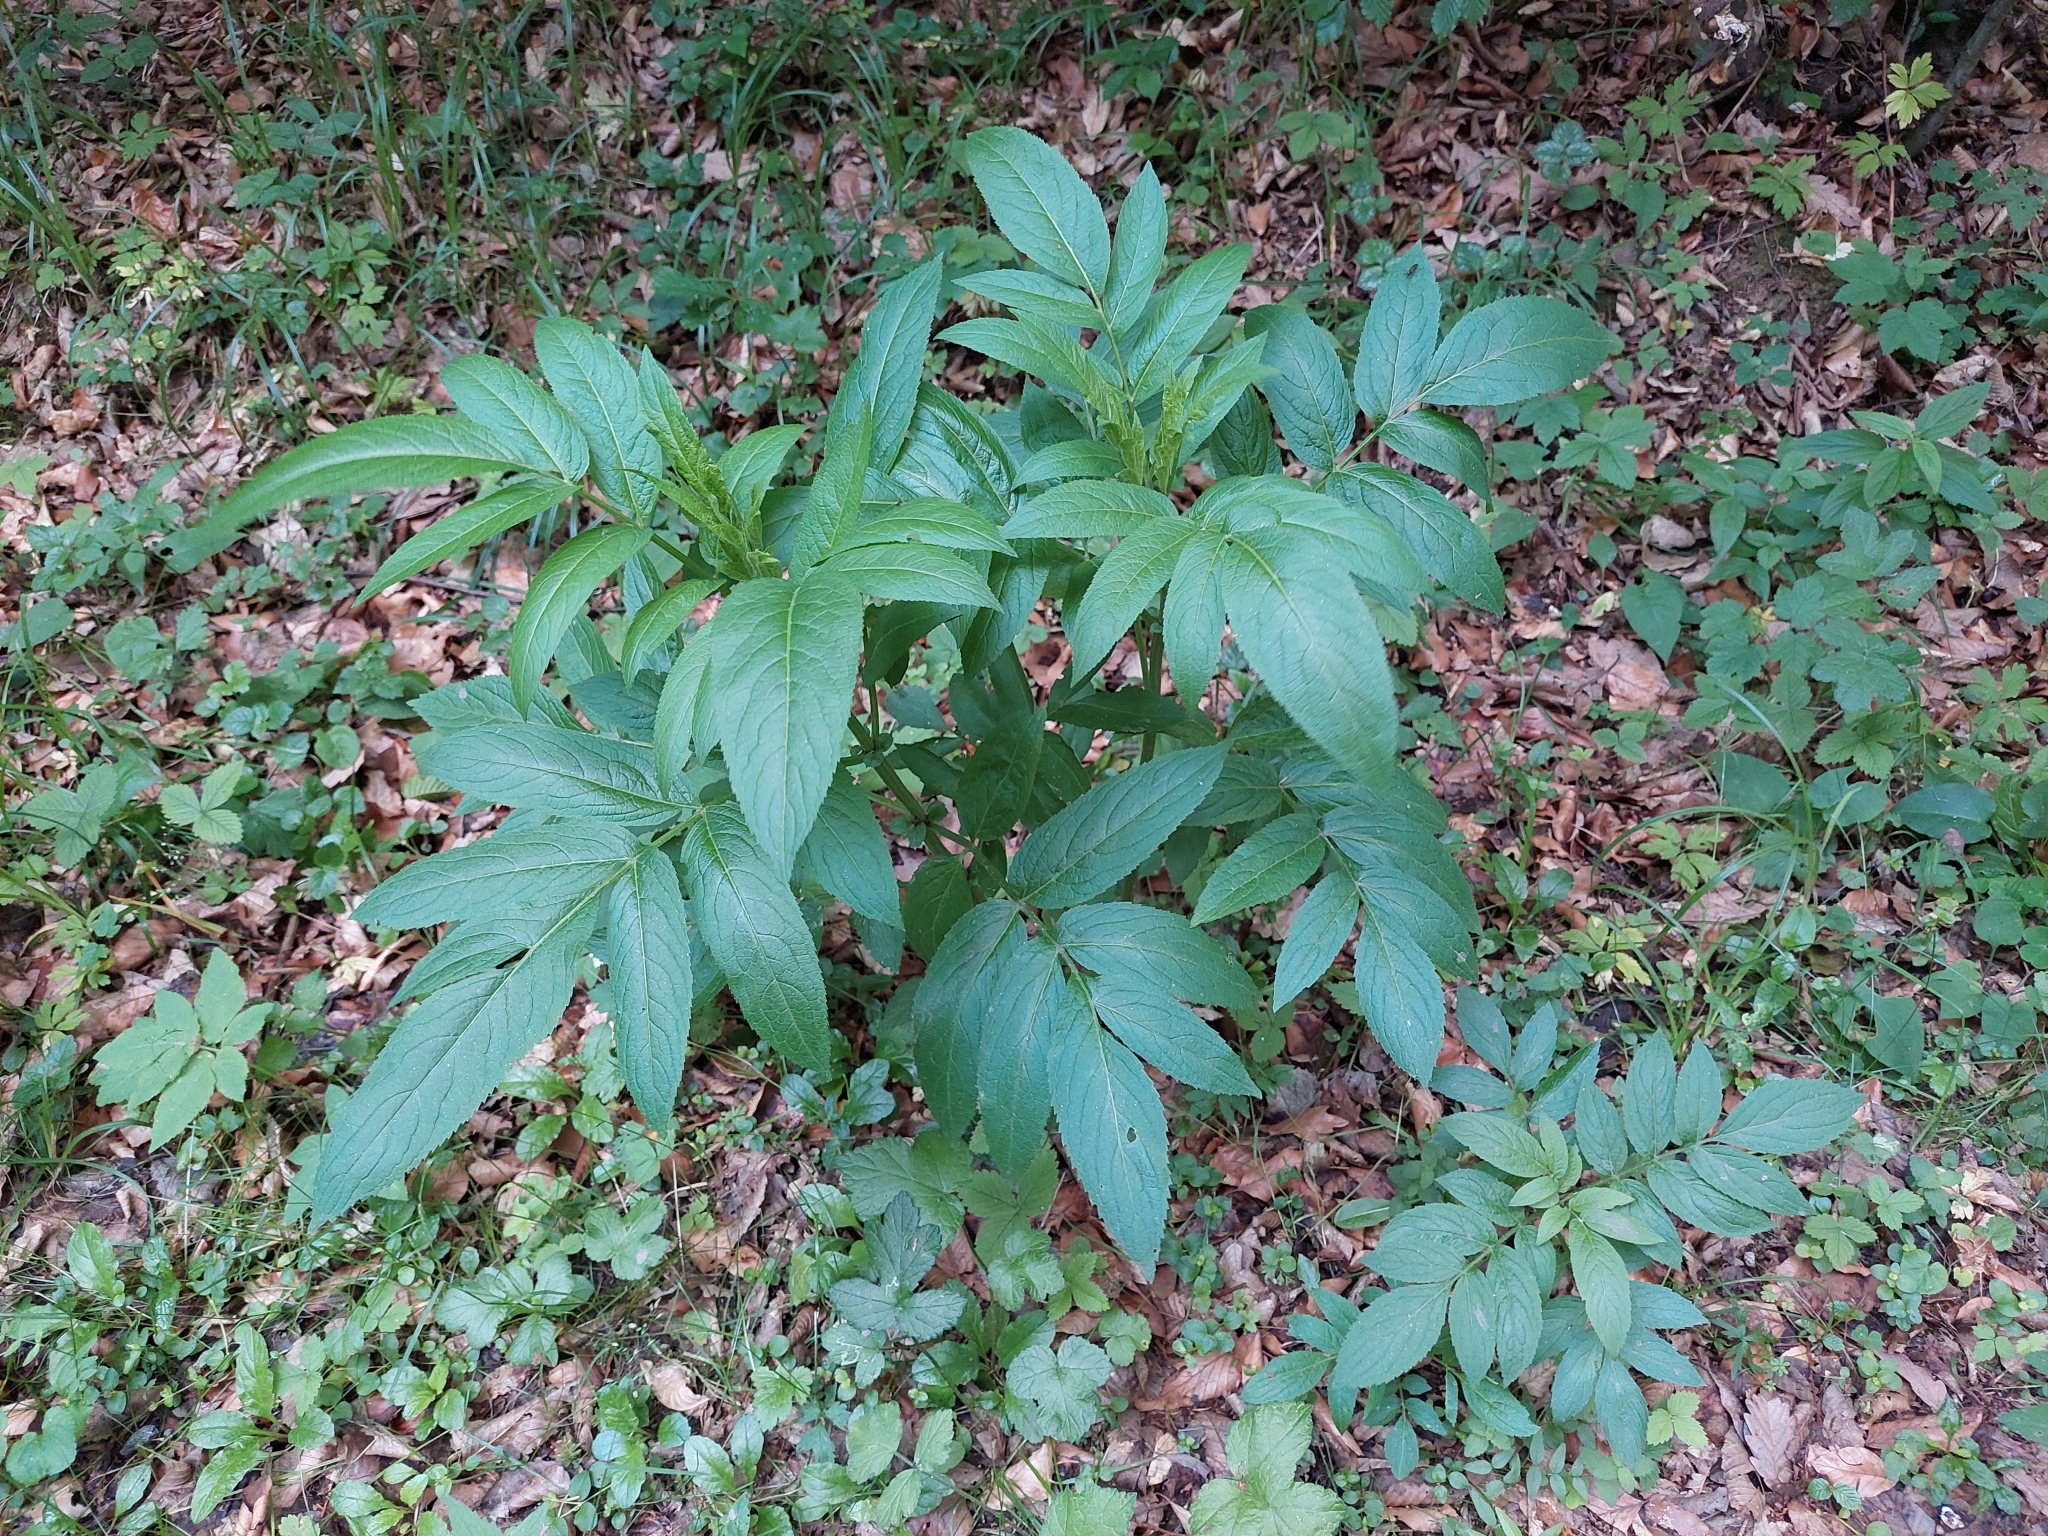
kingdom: Plantae
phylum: Tracheophyta
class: Magnoliopsida
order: Dipsacales
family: Viburnaceae
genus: Sambucus
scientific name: Sambucus ebulus
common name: Dwarf elder
